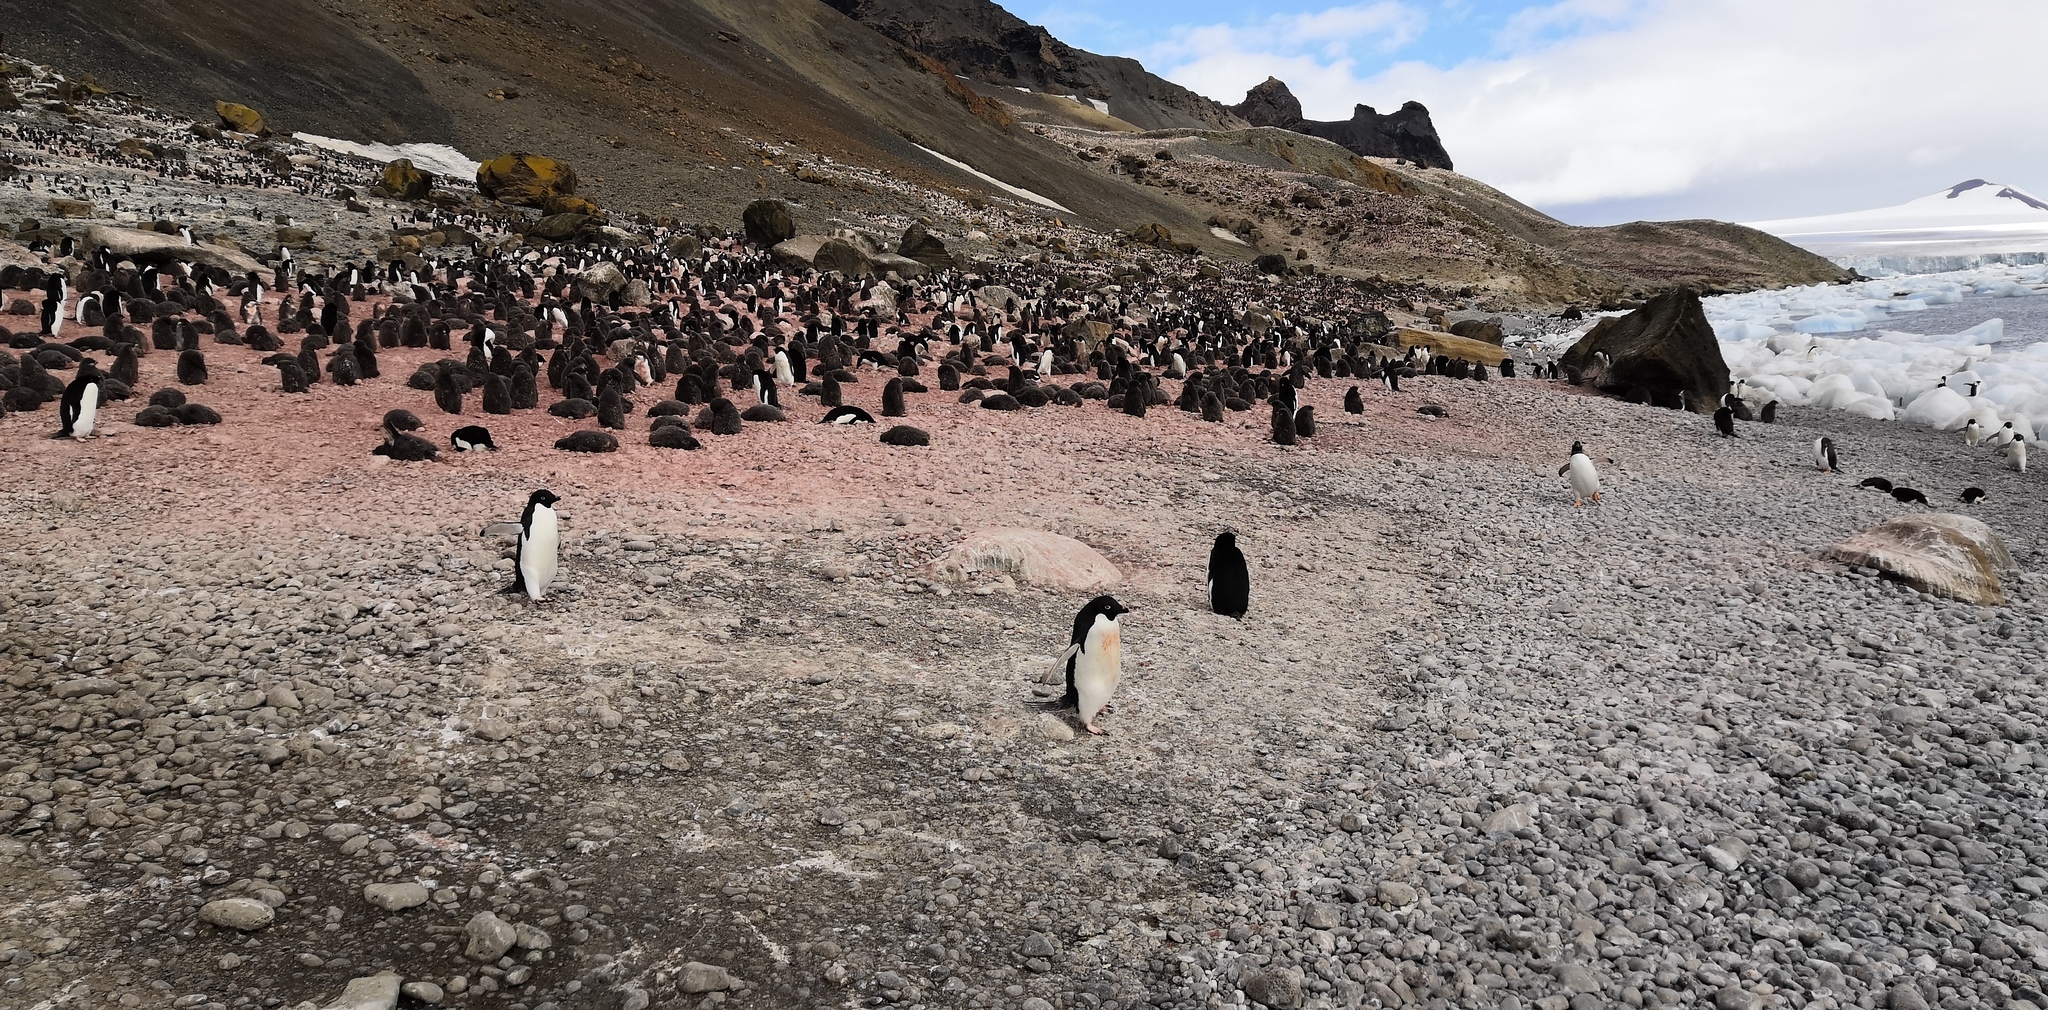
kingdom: Animalia
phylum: Chordata
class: Aves
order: Sphenisciformes
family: Spheniscidae
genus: Pygoscelis
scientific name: Pygoscelis adeliae
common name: Adelie penguin
